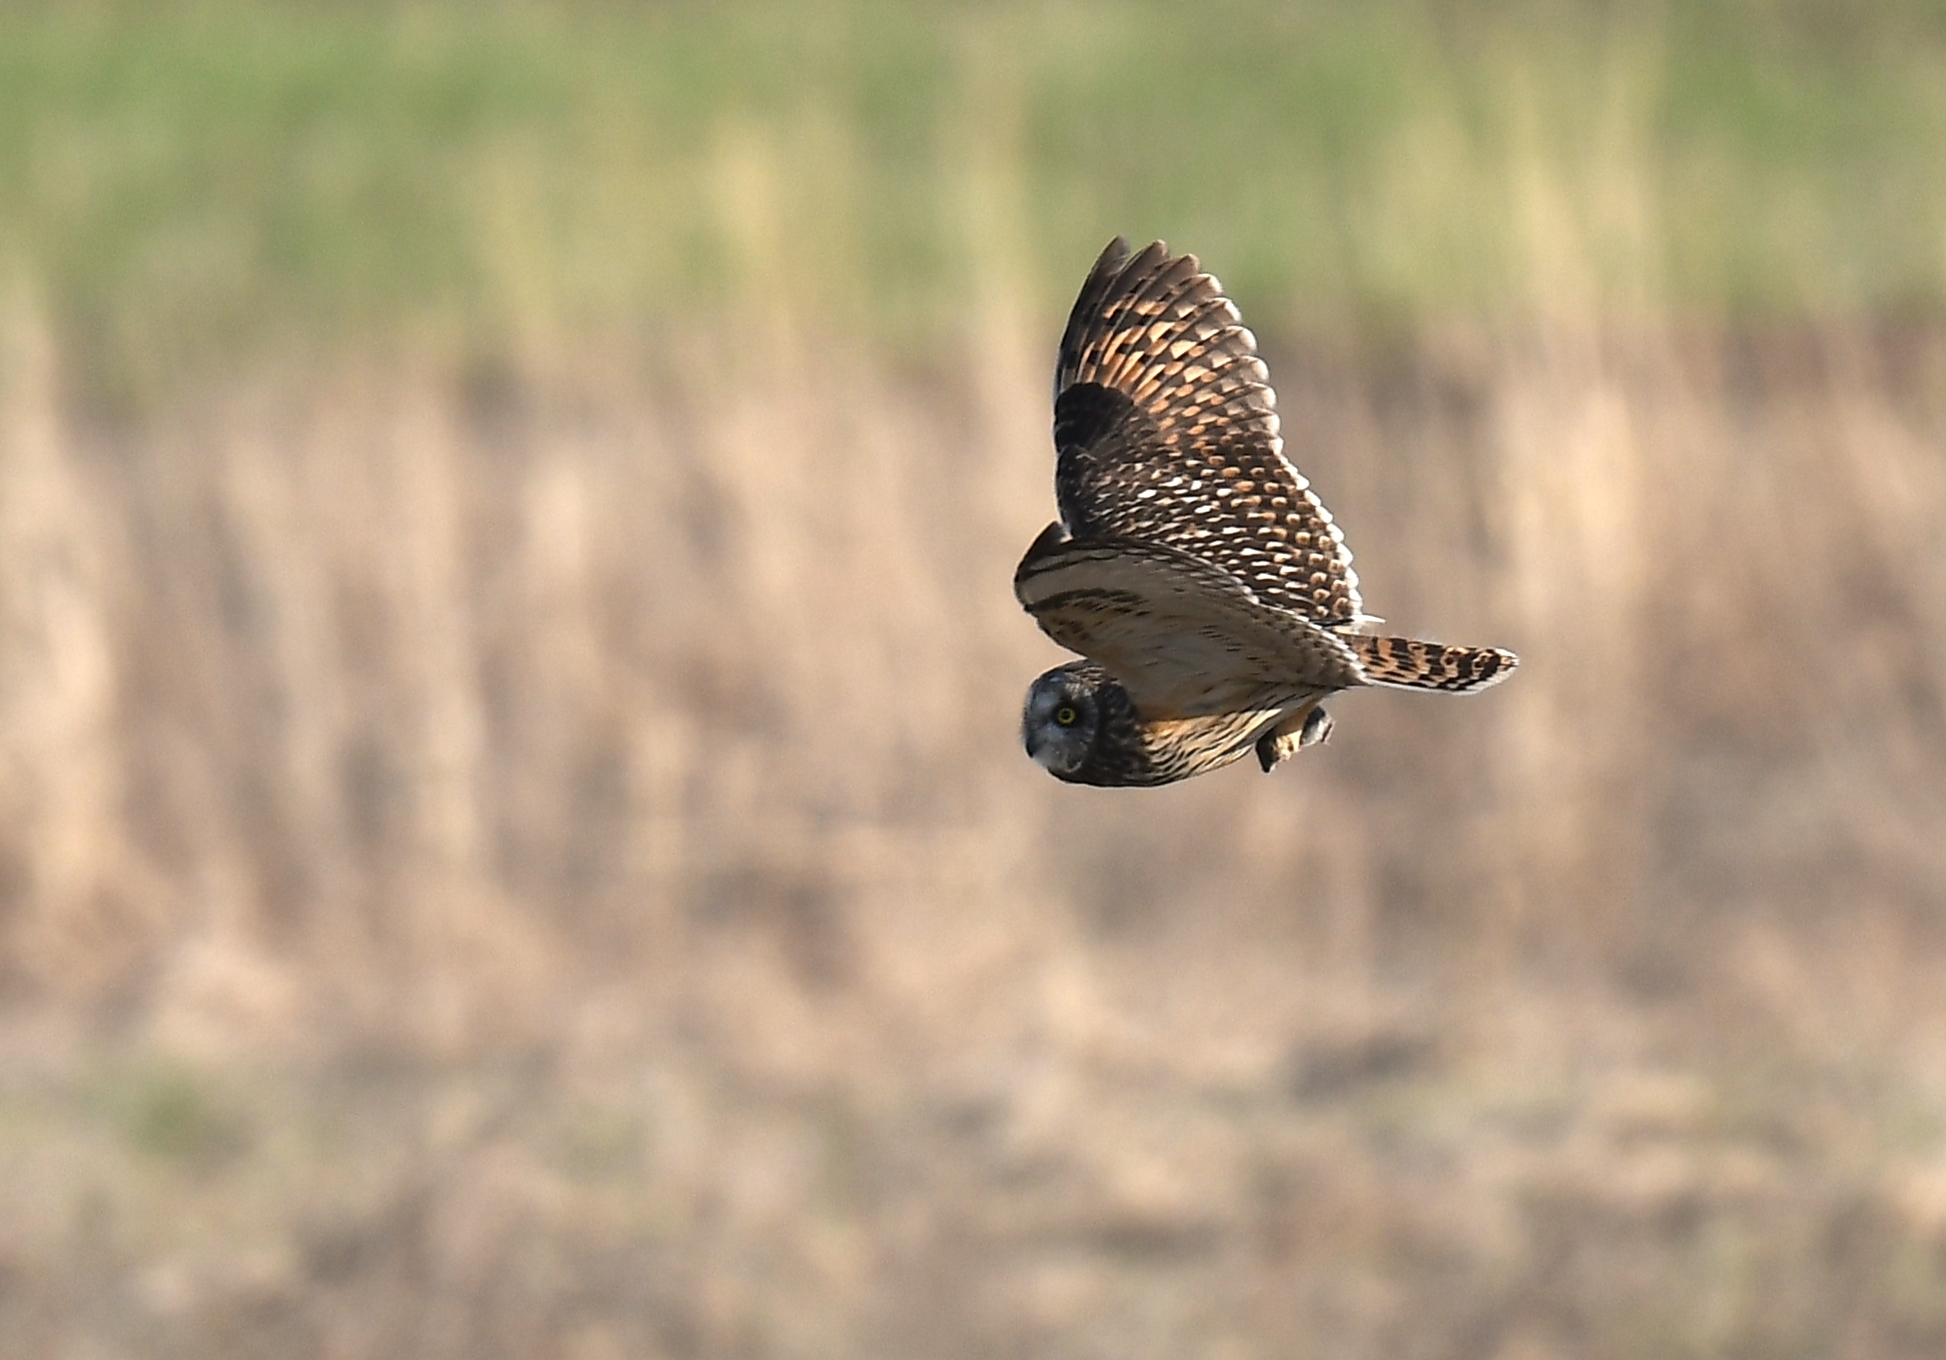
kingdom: Animalia
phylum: Chordata
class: Aves
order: Strigiformes
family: Strigidae
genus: Asio
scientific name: Asio flammeus
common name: Short-eared owl
